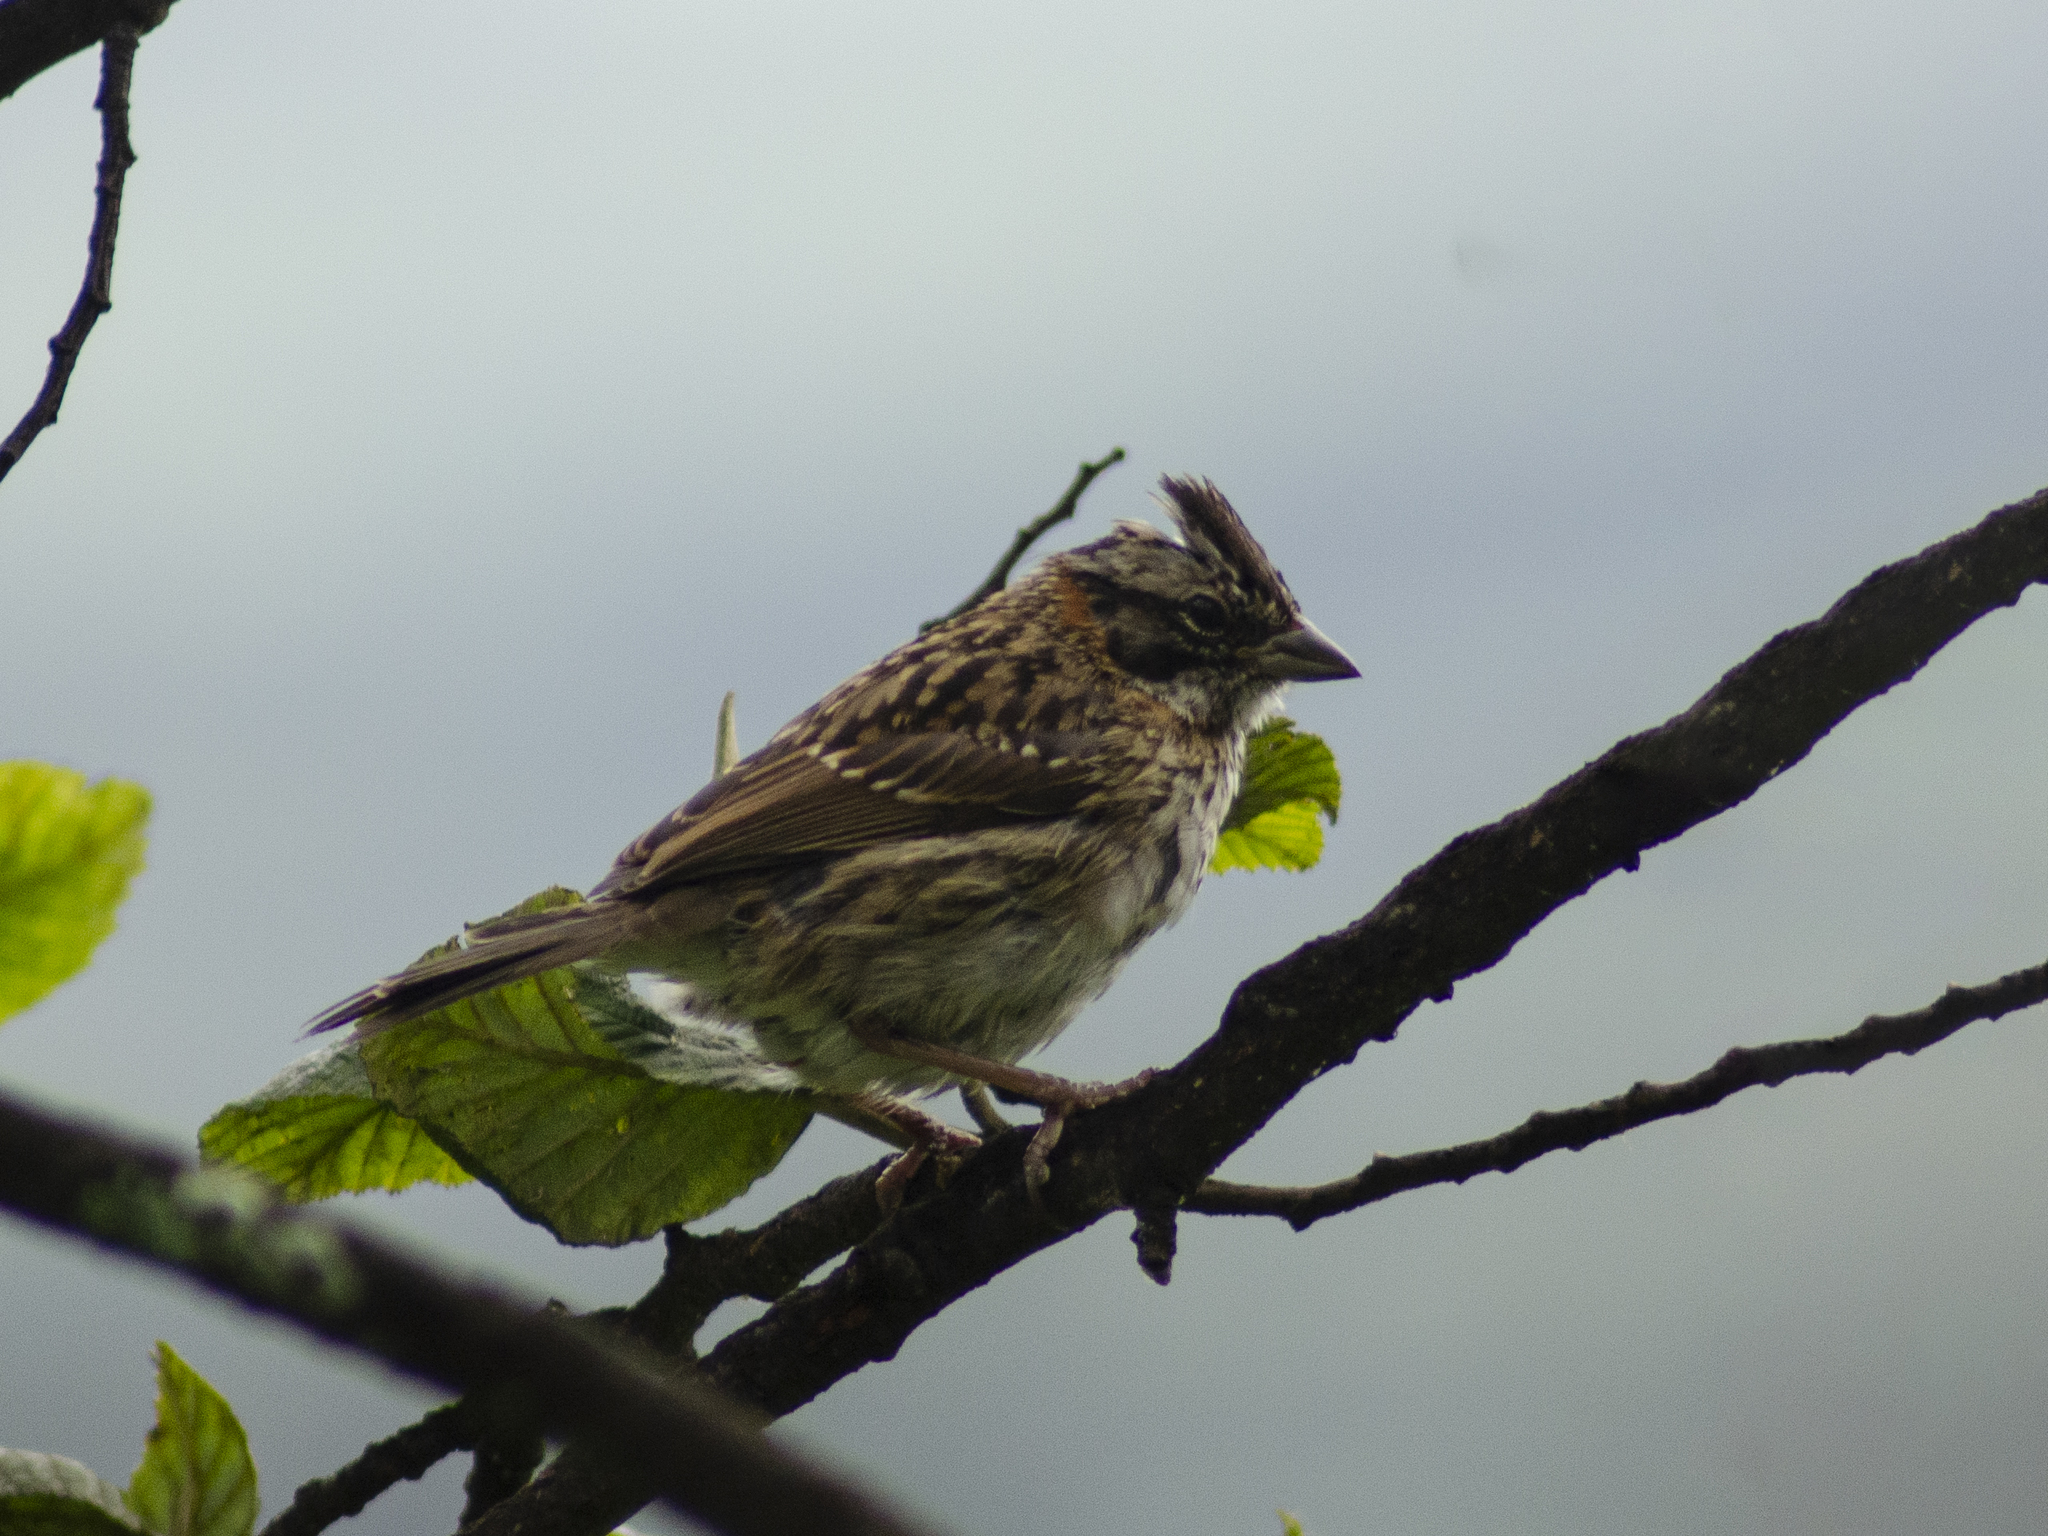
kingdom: Animalia
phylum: Chordata
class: Aves
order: Passeriformes
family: Passerellidae
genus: Zonotrichia
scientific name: Zonotrichia capensis
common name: Rufous-collared sparrow
